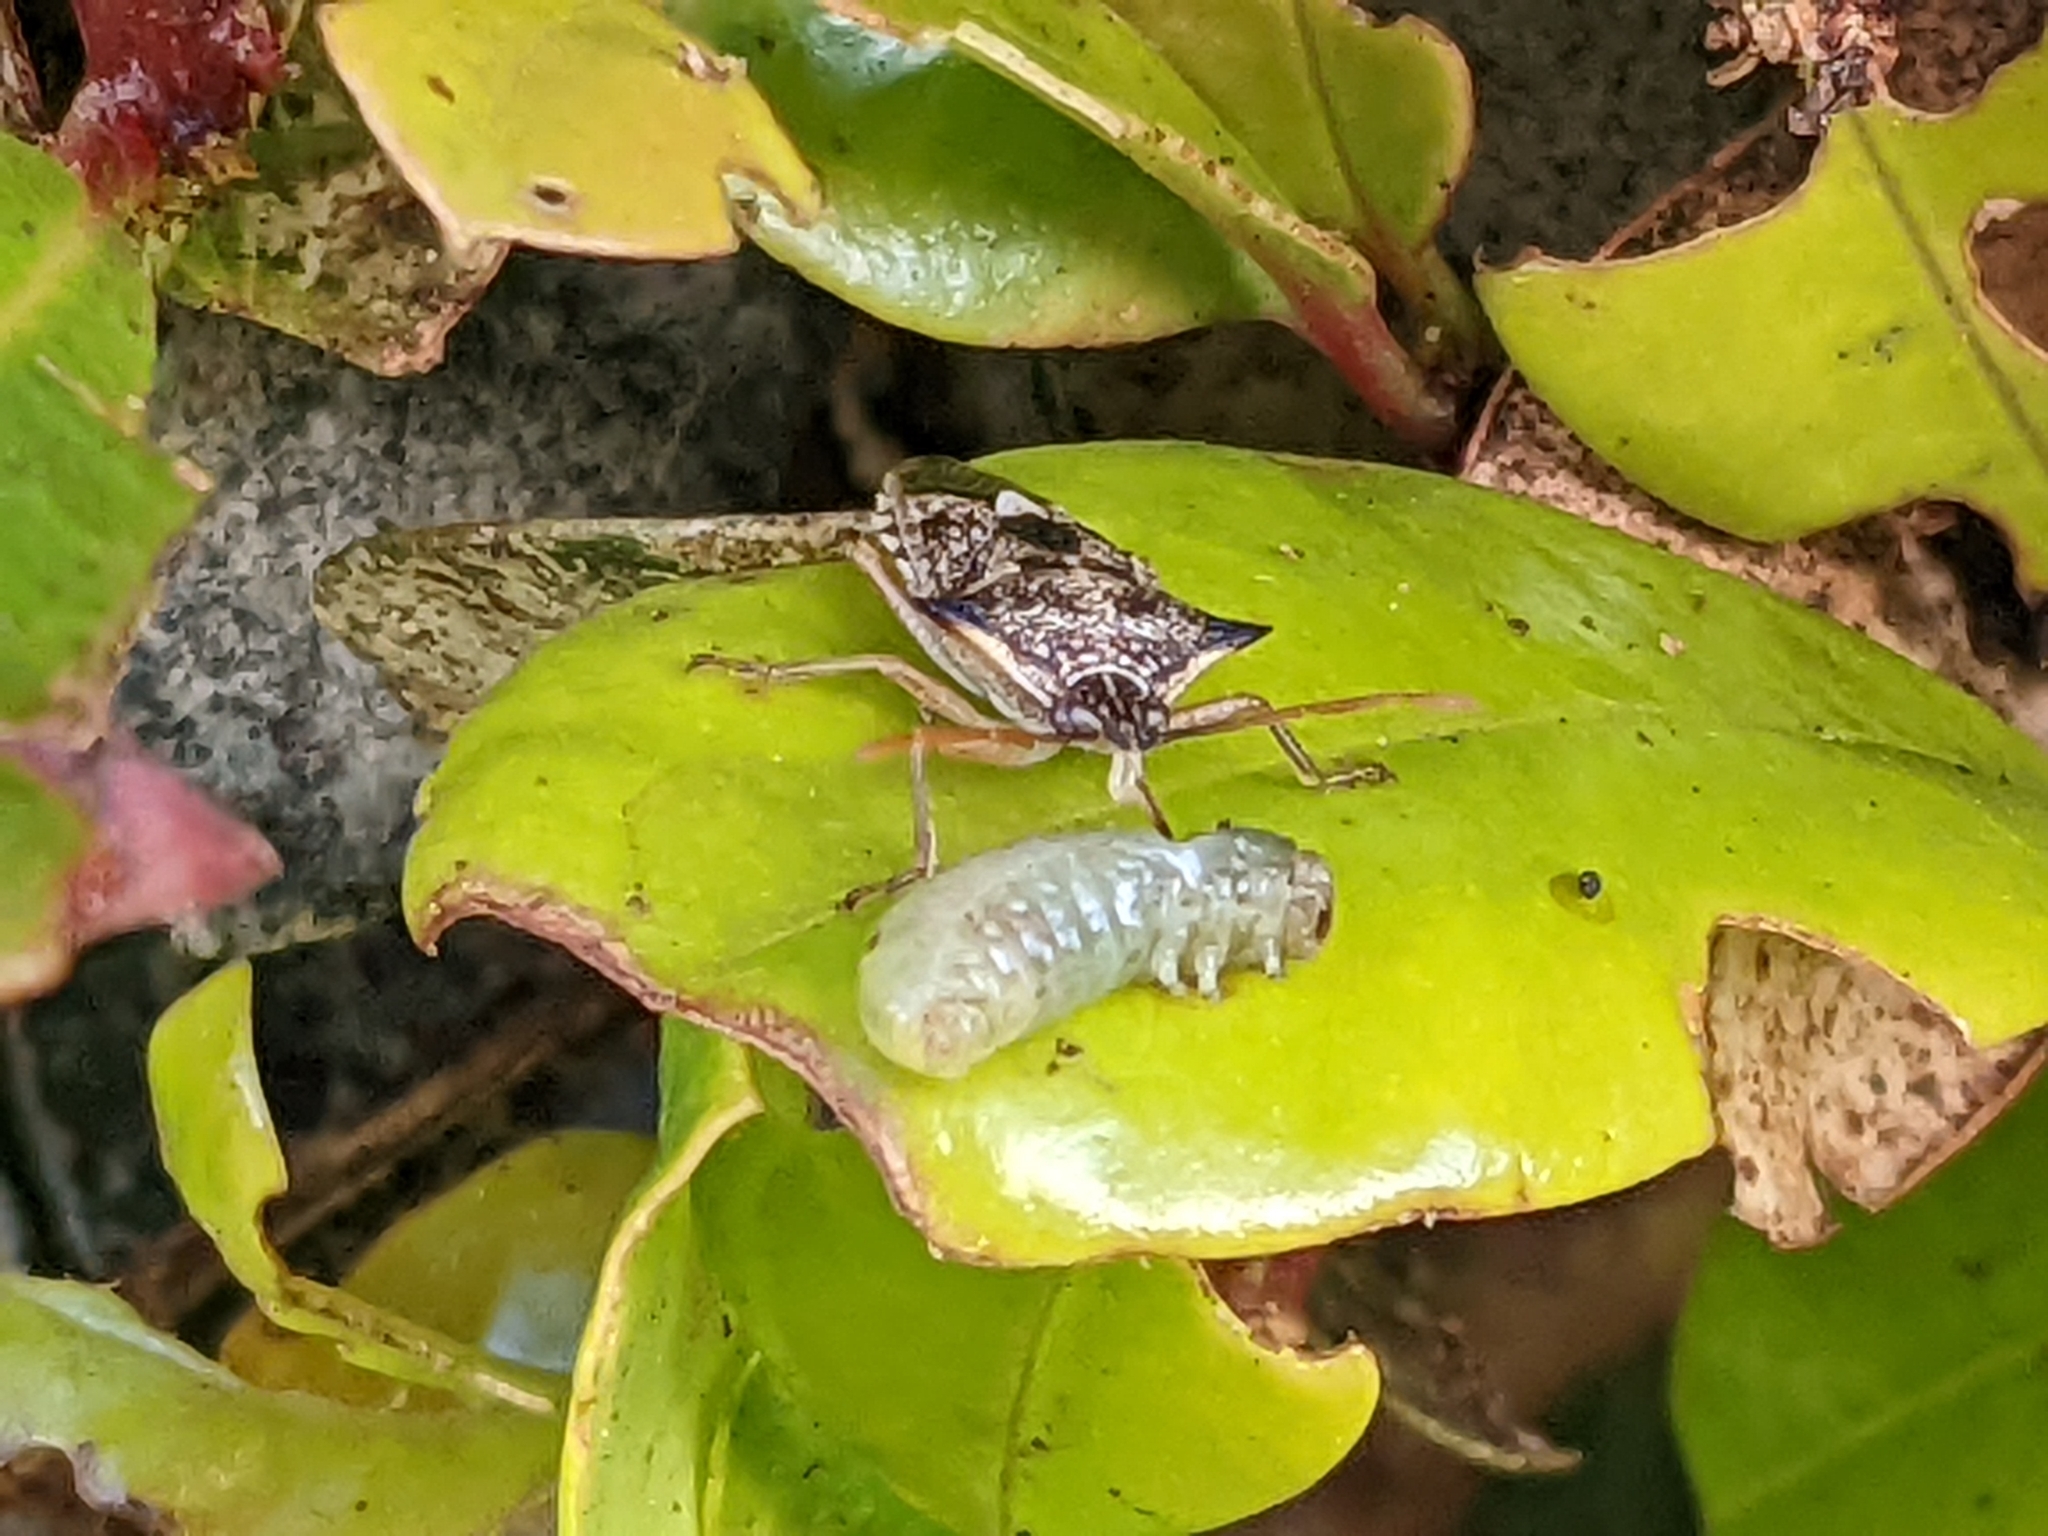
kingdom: Animalia
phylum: Arthropoda
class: Insecta
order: Hemiptera
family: Pentatomidae
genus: Oechalia
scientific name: Oechalia schellenbergii
